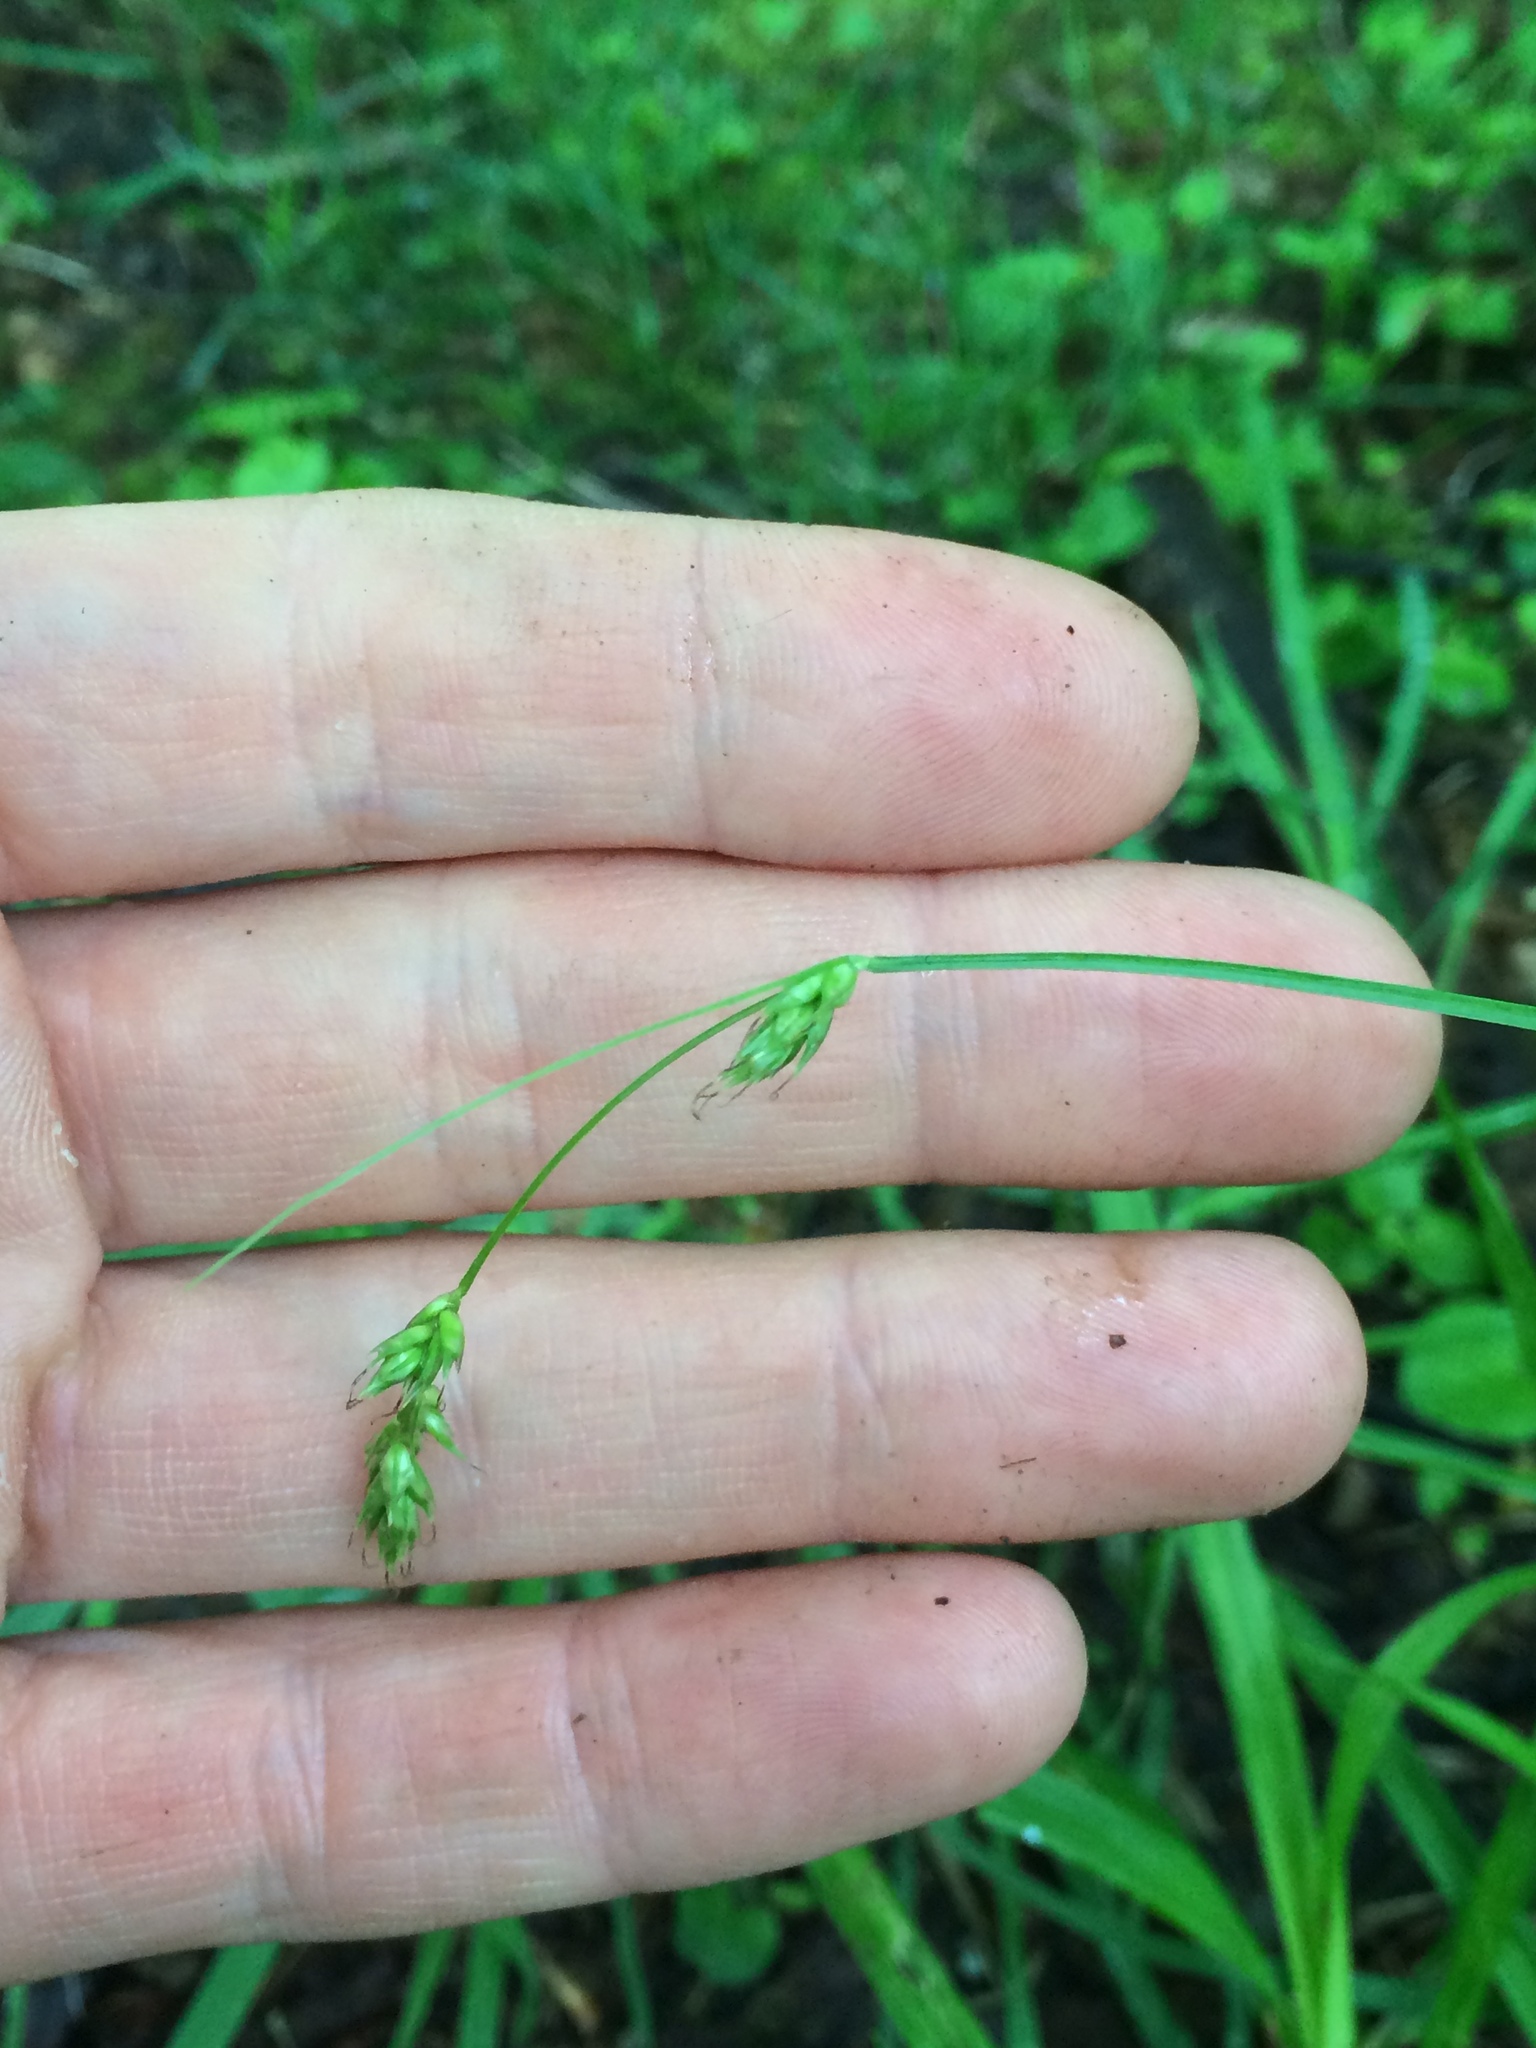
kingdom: Plantae
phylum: Tracheophyta
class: Liliopsida
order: Poales
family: Cyperaceae
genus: Carex
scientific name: Carex deweyana
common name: Dewey's sedge
